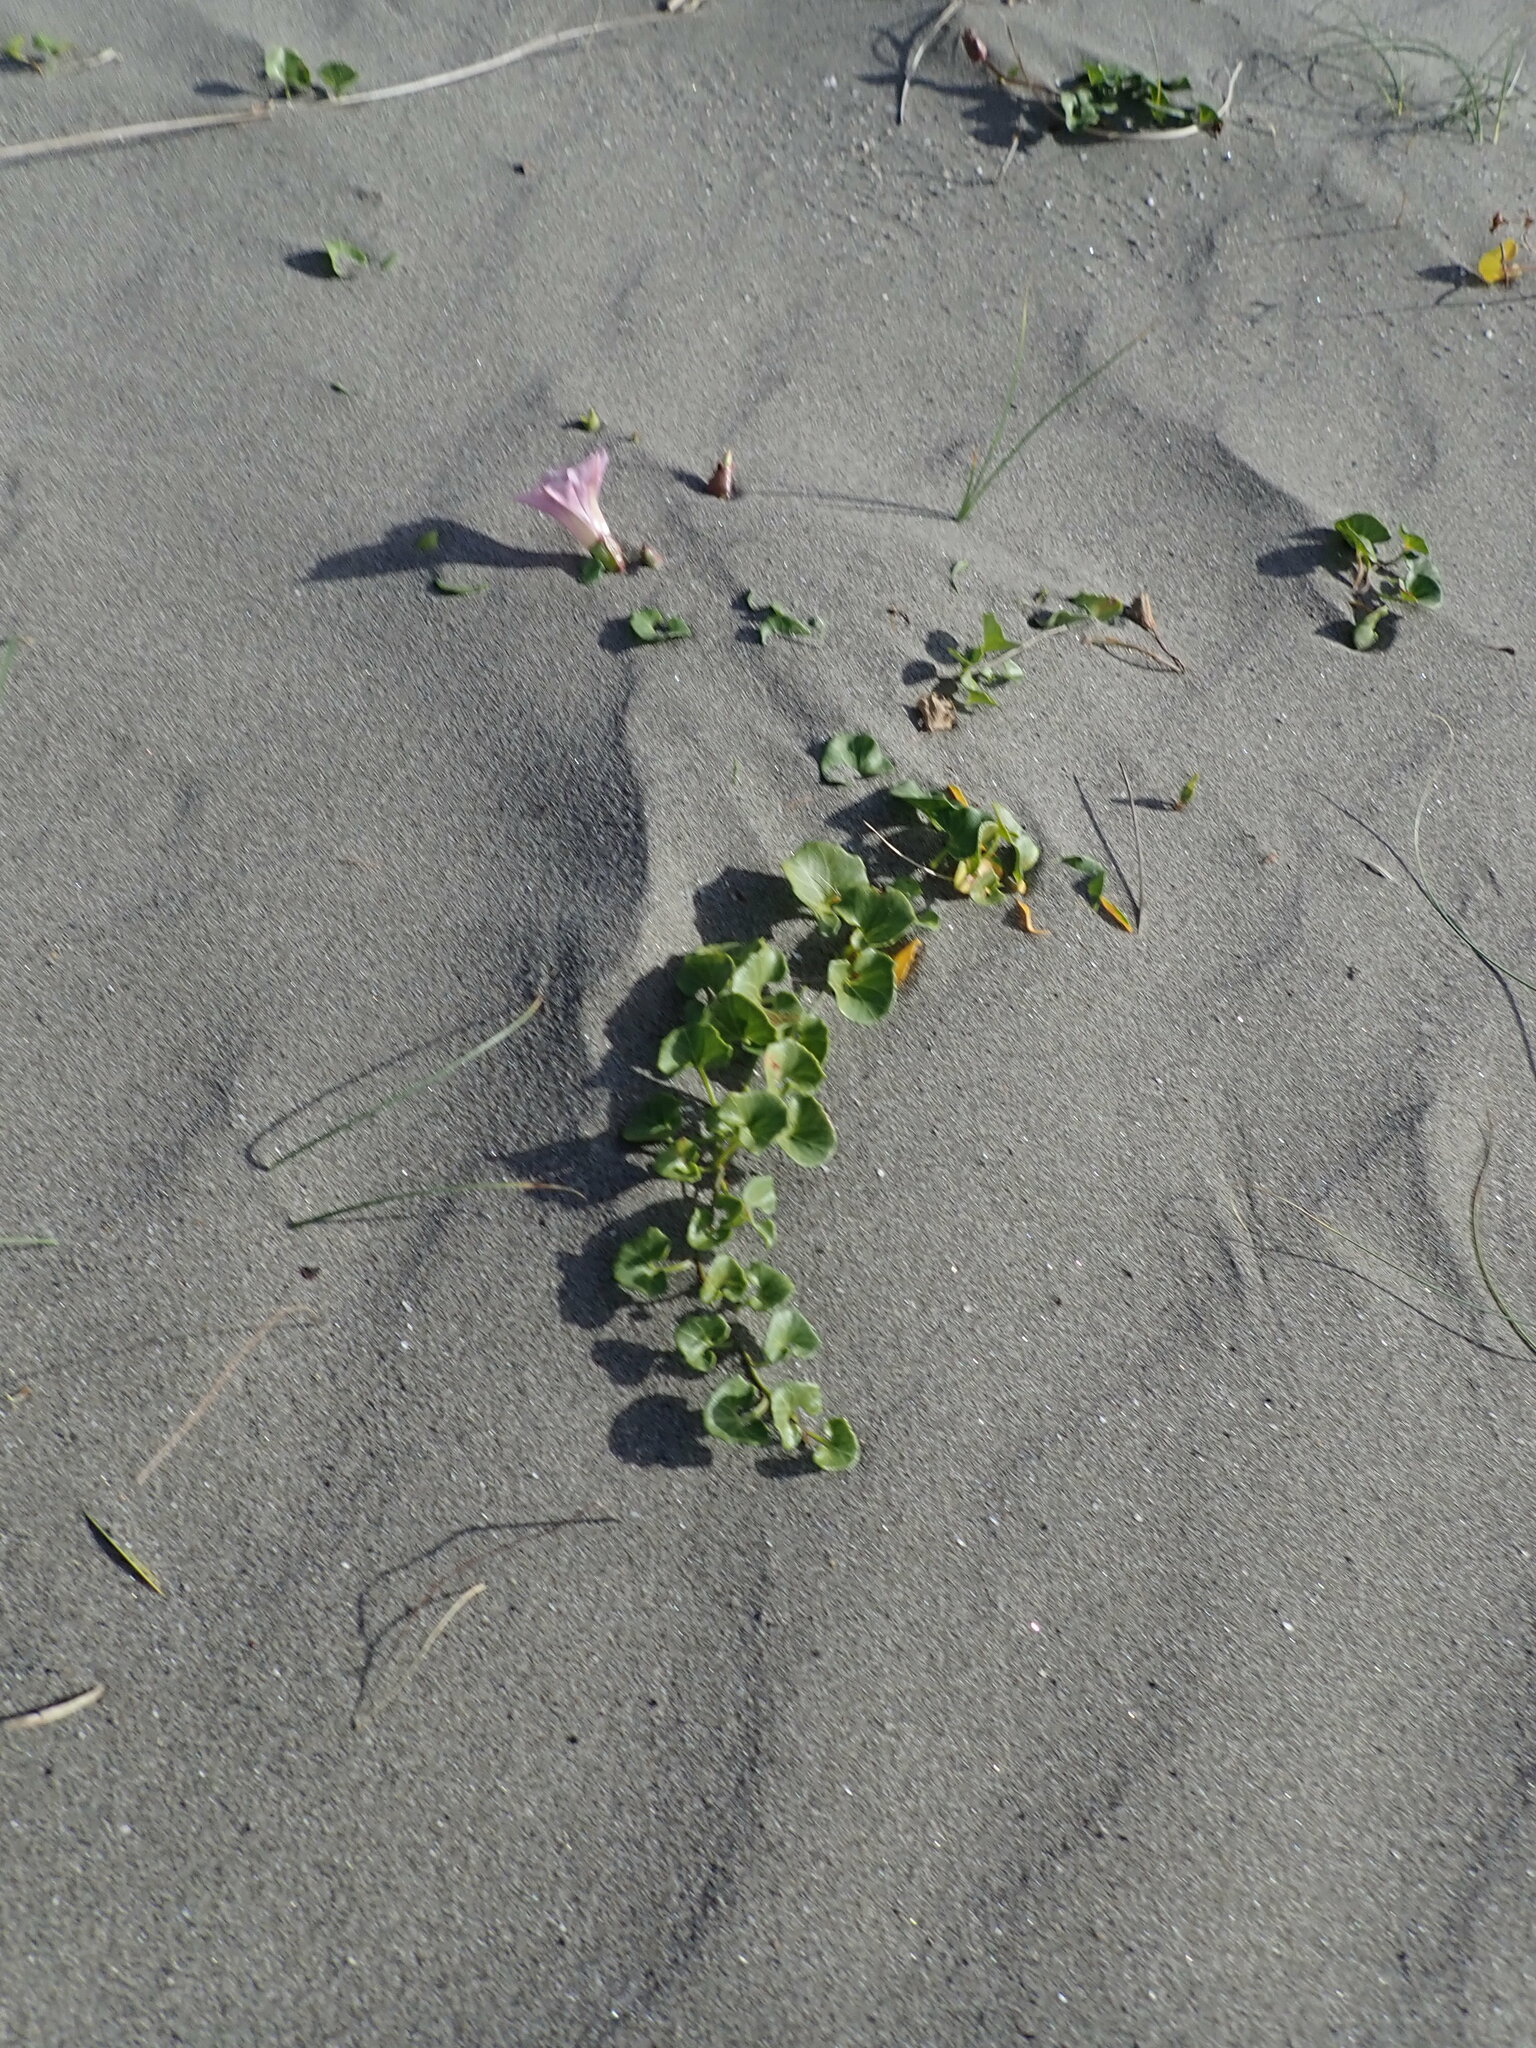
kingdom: Plantae
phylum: Tracheophyta
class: Magnoliopsida
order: Solanales
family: Convolvulaceae
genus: Calystegia
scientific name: Calystegia soldanella
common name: Sea bindweed
